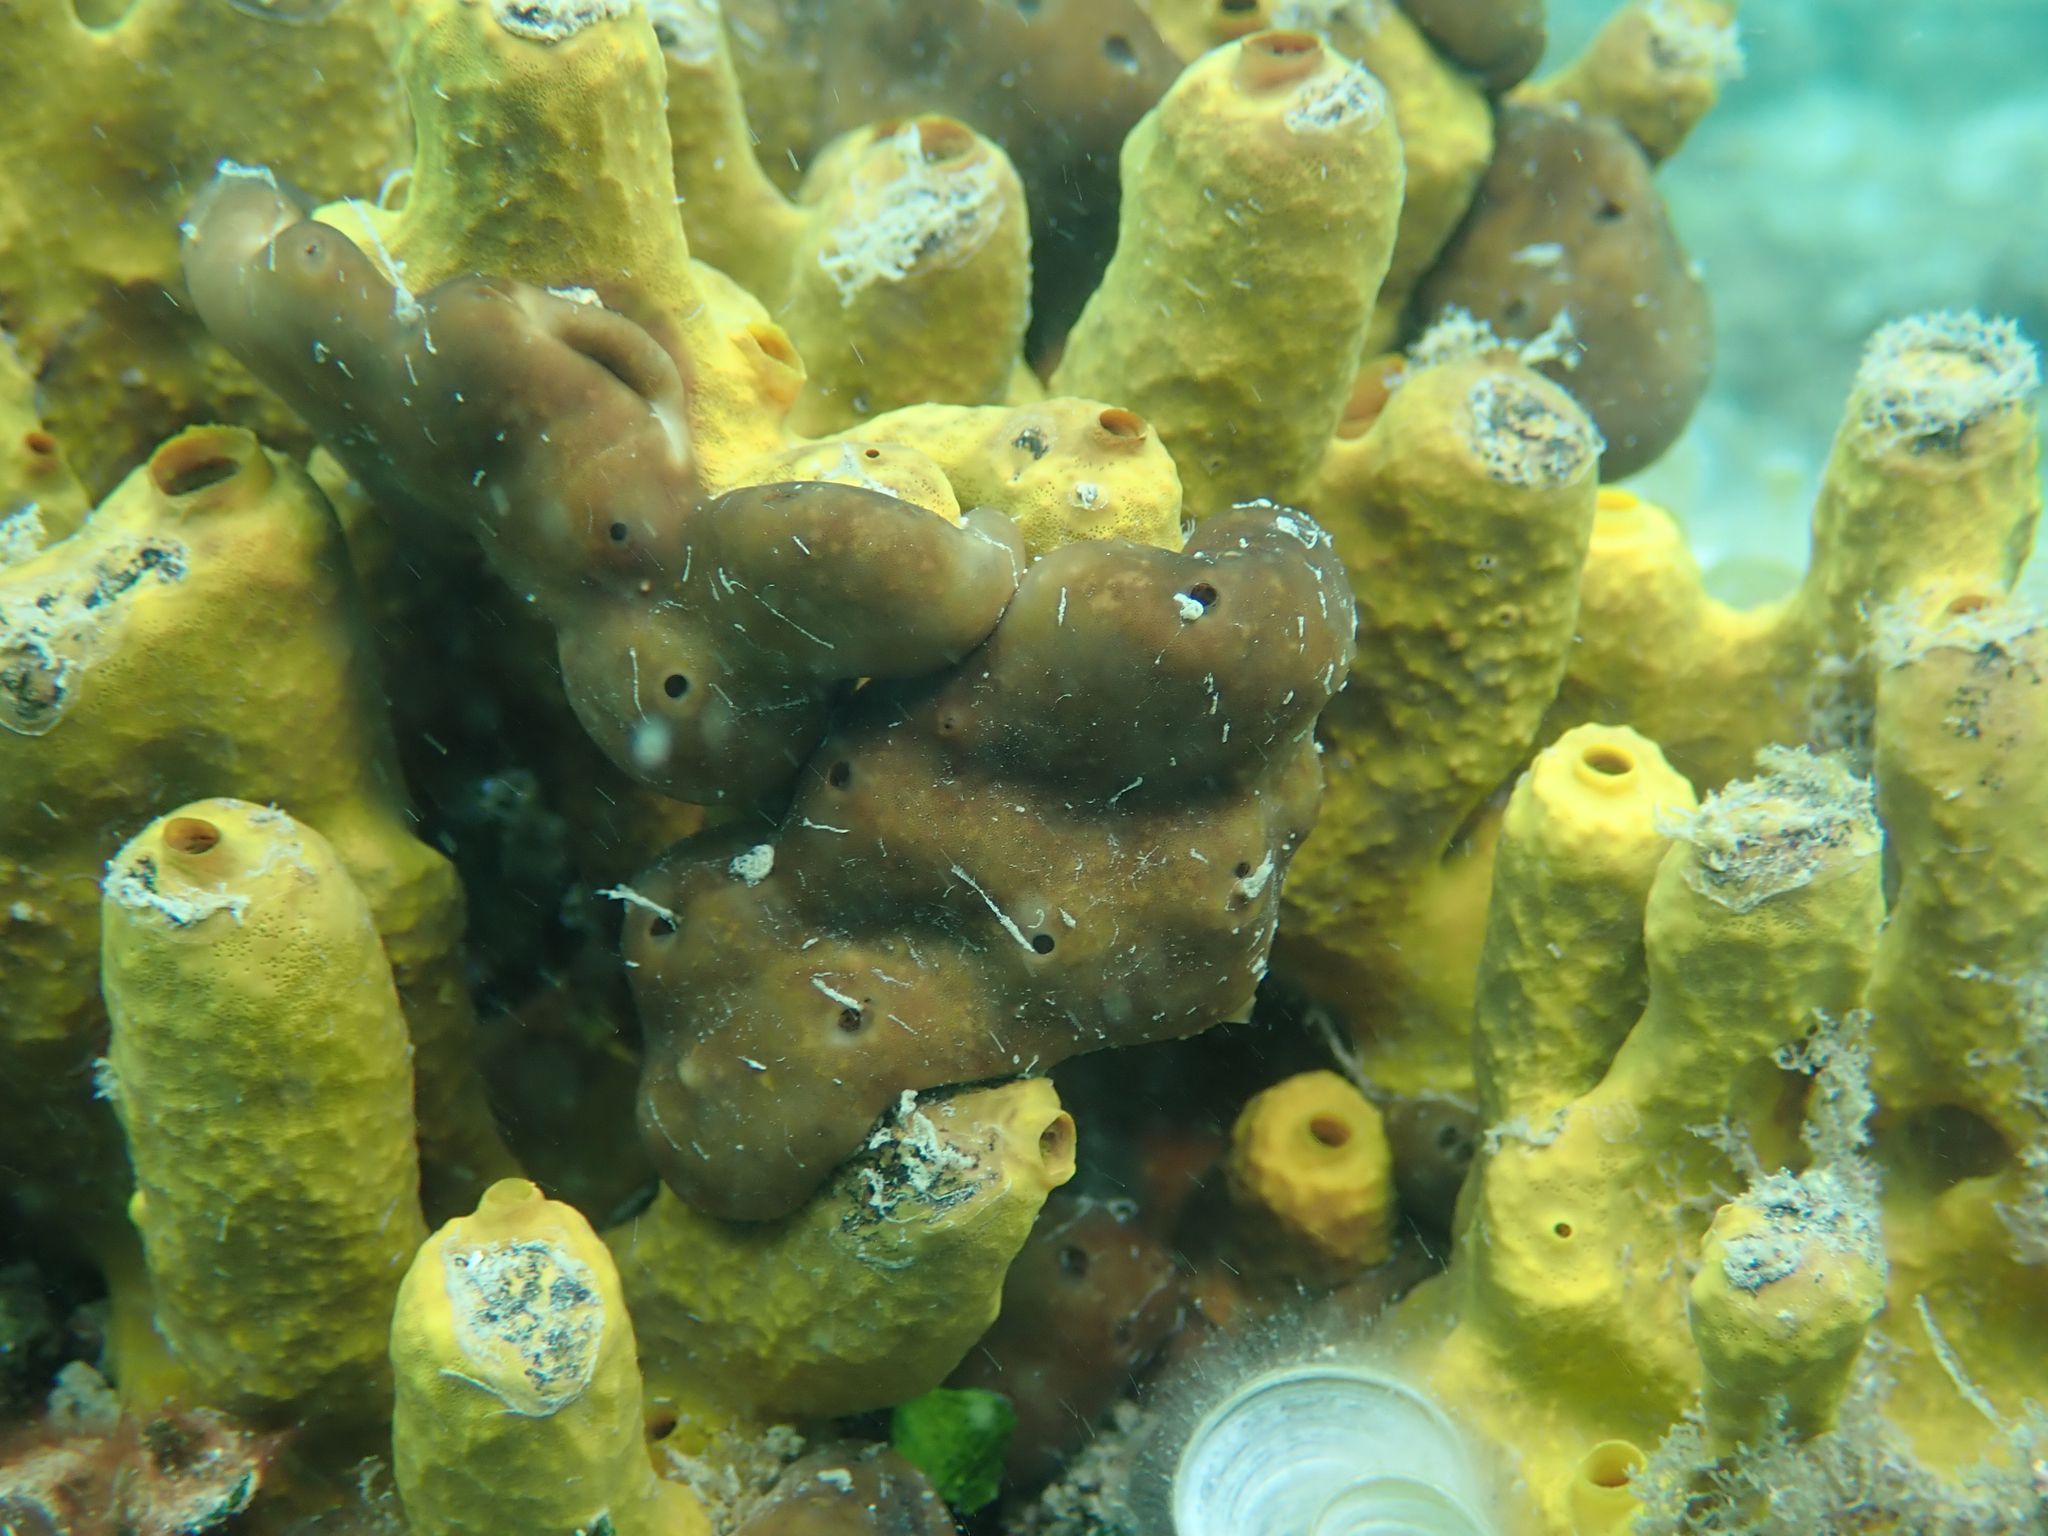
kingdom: Animalia
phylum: Porifera
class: Demospongiae
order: Chondrillida
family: Chondrillidae
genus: Chondrilla
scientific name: Chondrilla nucula
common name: Chicken liver sponge
